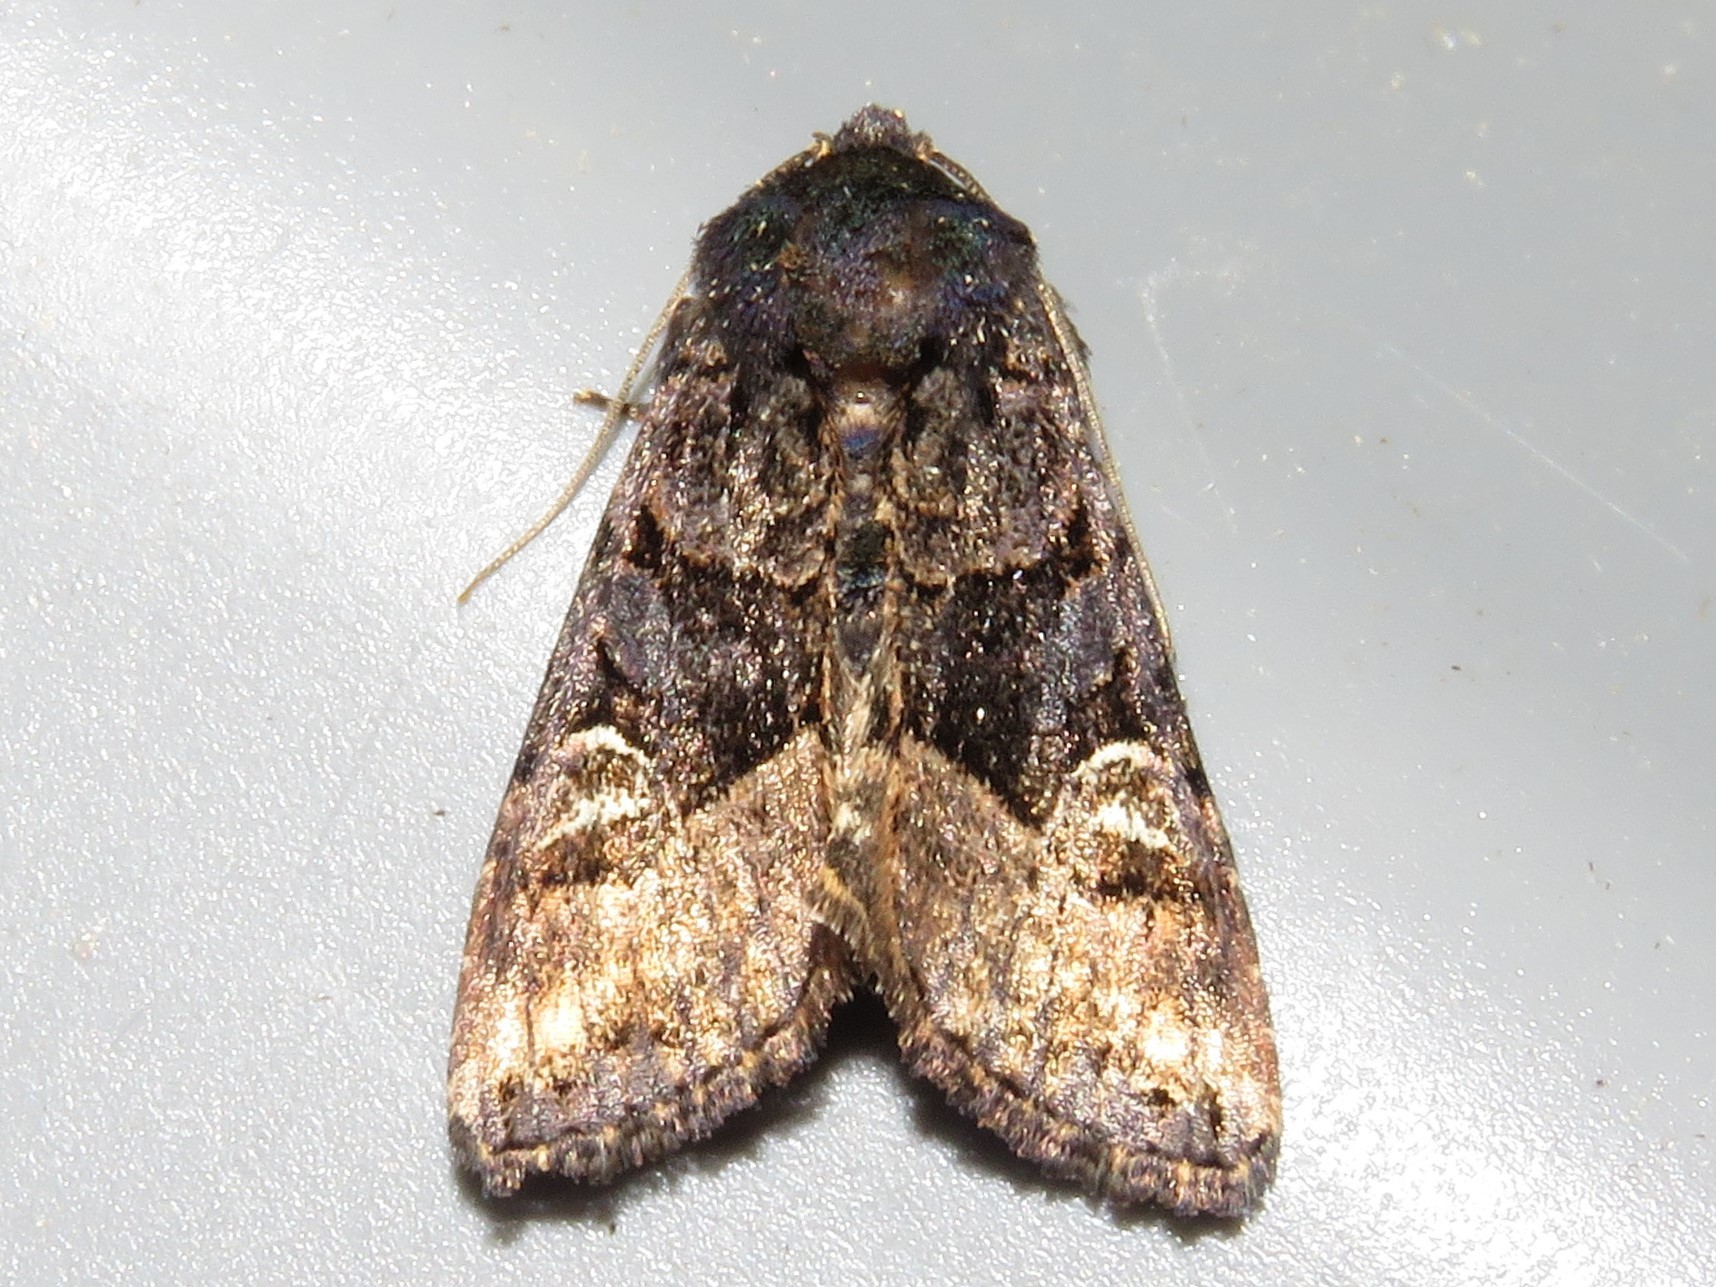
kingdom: Animalia
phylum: Arthropoda
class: Insecta
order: Lepidoptera
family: Noctuidae
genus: Euplexia
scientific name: Euplexia benesimilis
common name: American angle shades
